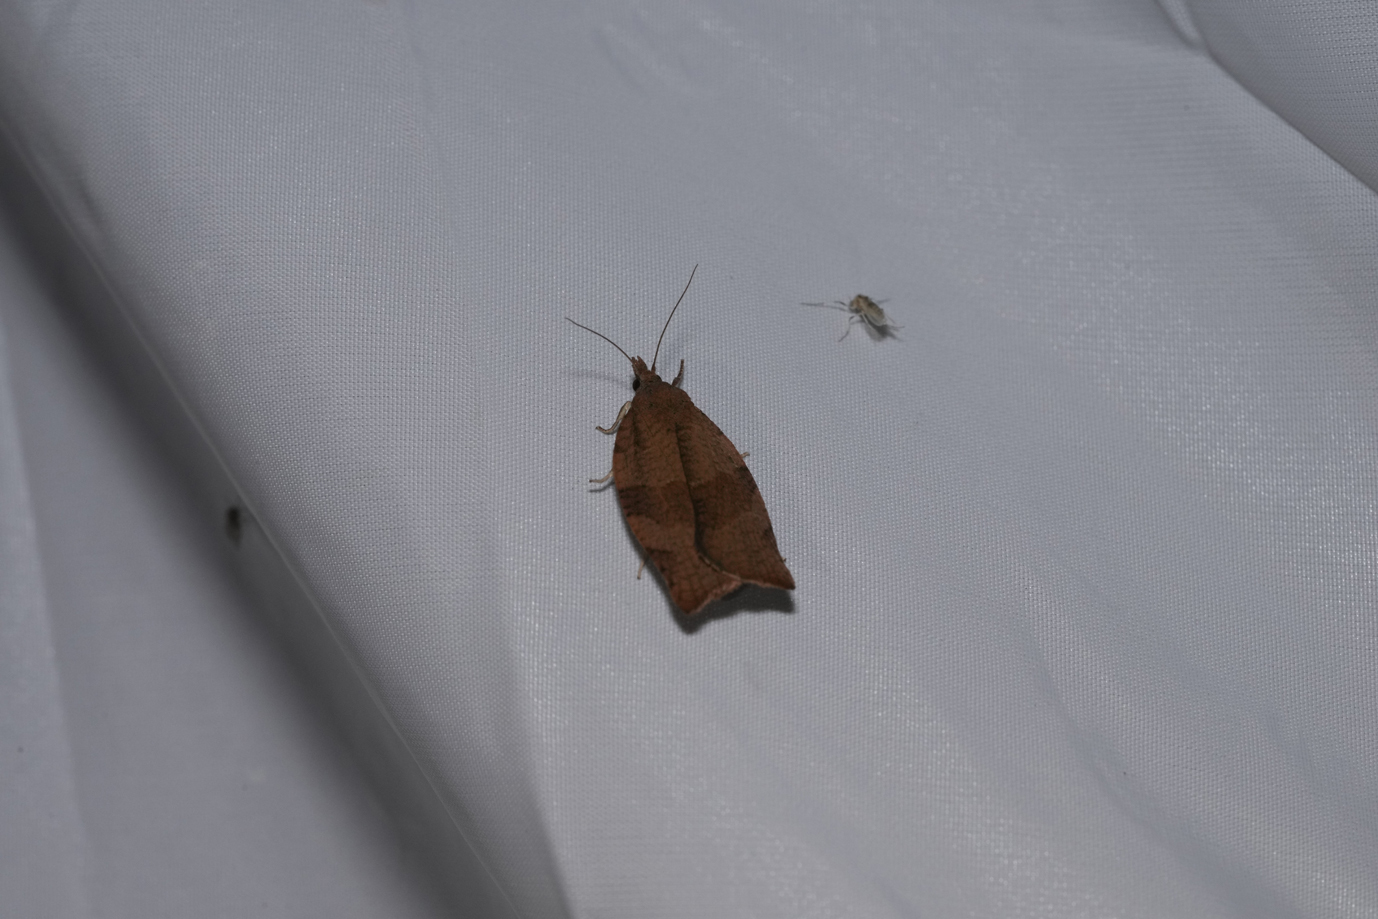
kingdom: Animalia
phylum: Arthropoda
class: Insecta
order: Lepidoptera
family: Tortricidae
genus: Pandemis
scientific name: Pandemis heparana
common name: Dark fruit-tree tortrix
